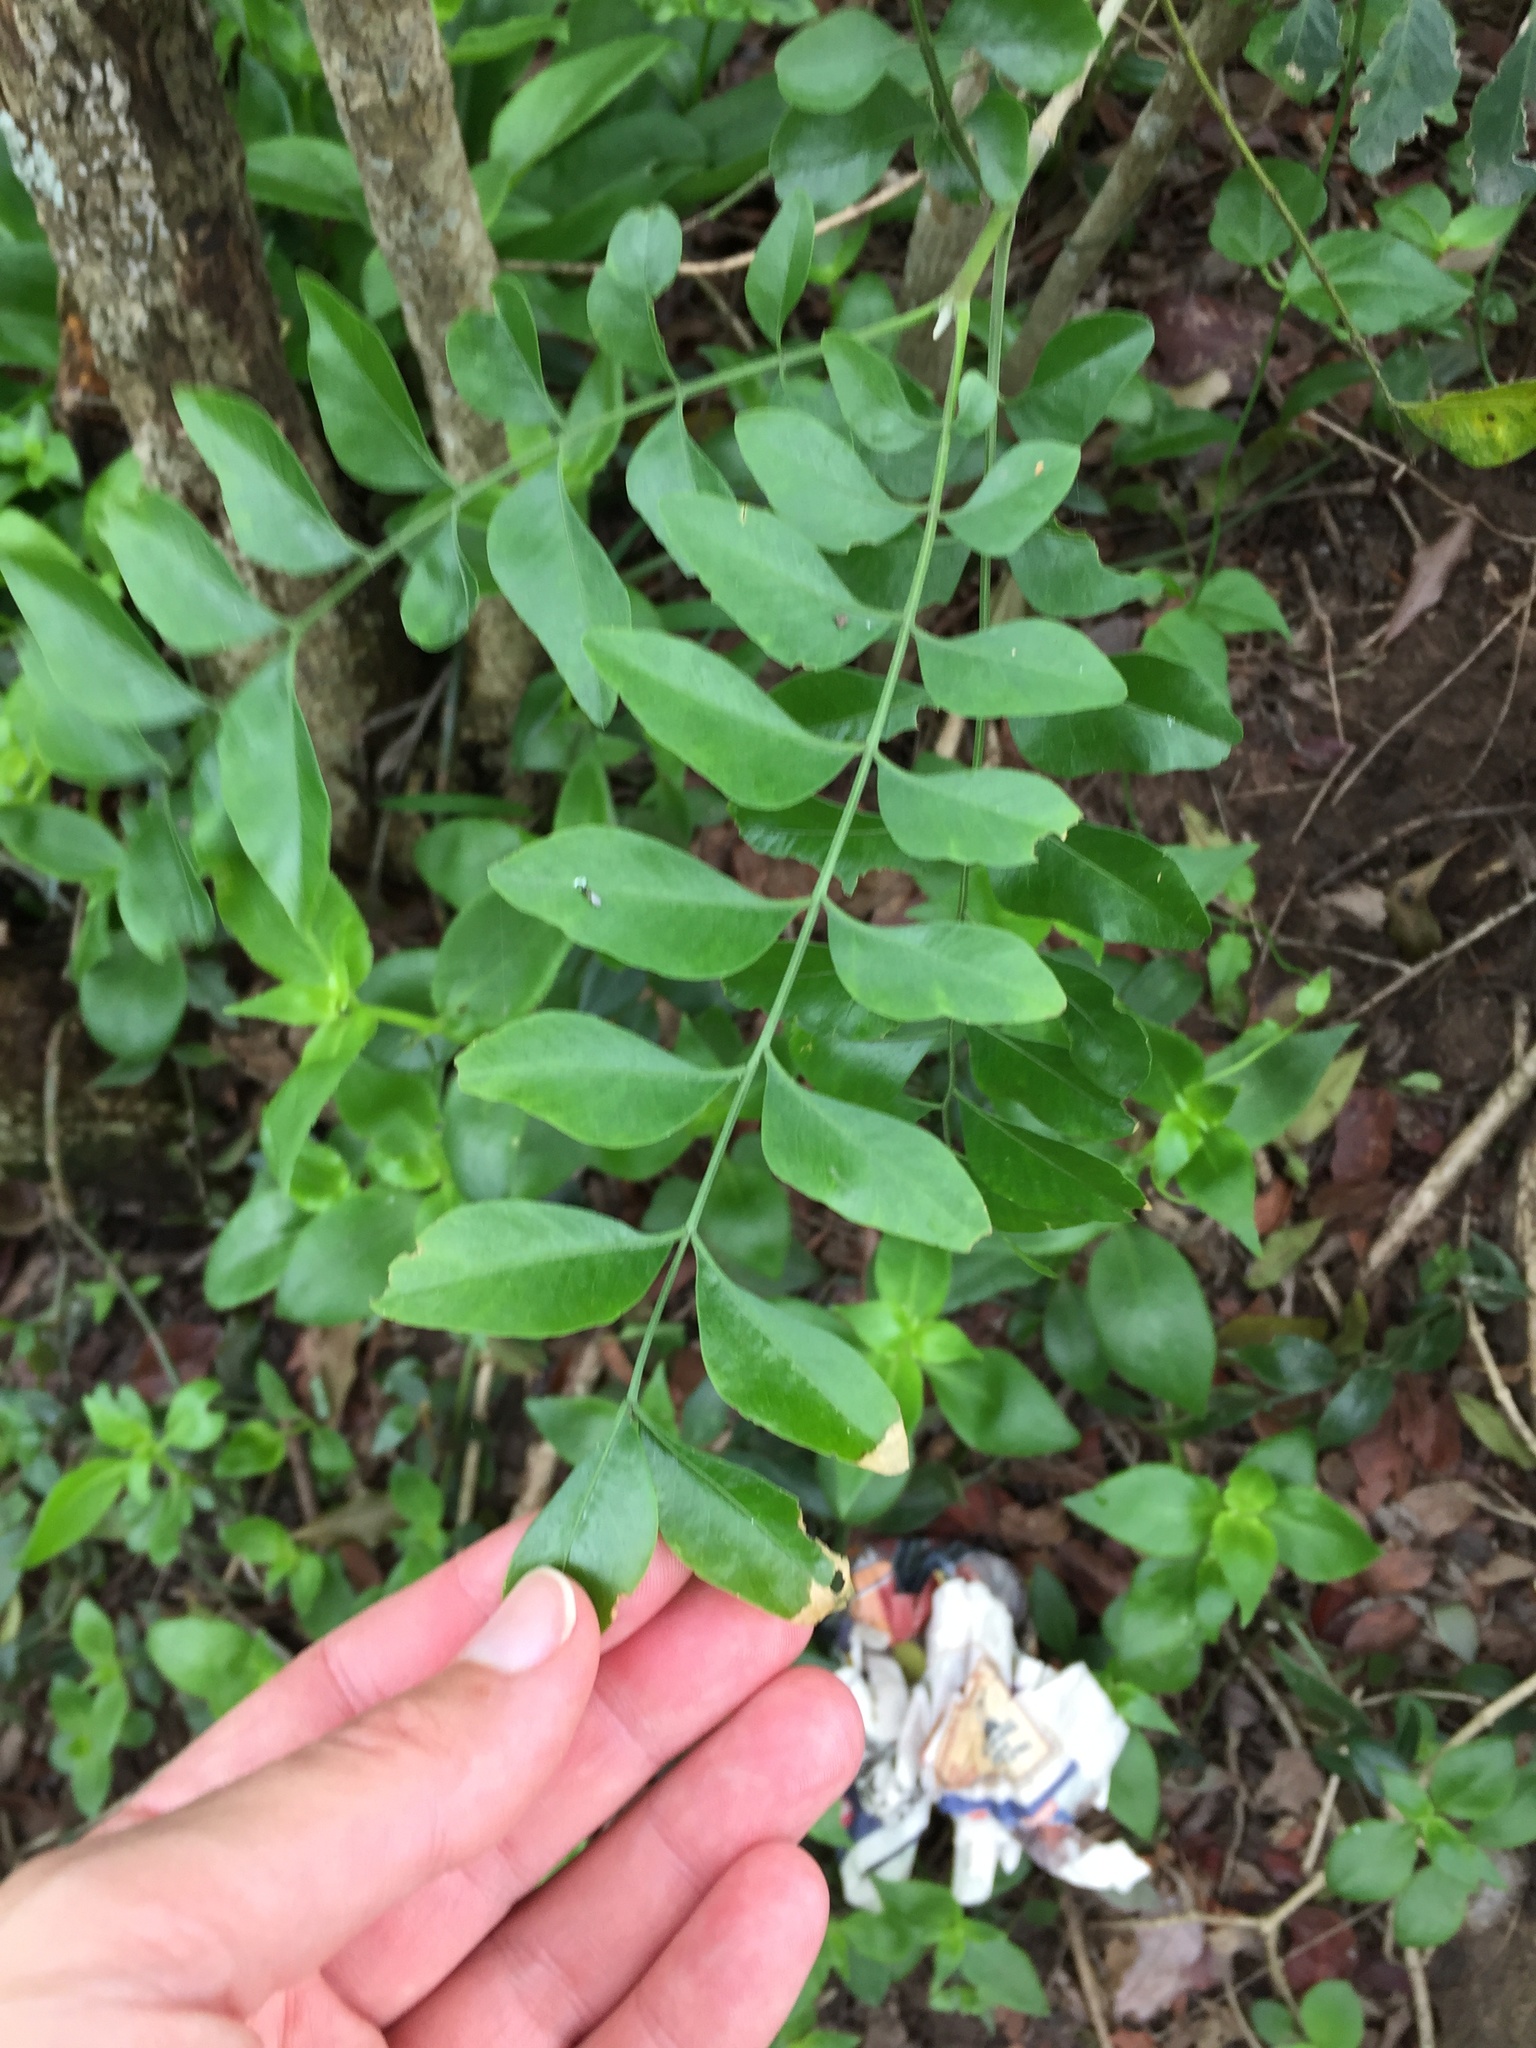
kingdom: Plantae
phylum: Tracheophyta
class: Magnoliopsida
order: Sapindales
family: Rutaceae
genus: Clausena
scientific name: Clausena anisata
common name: Horsewood
